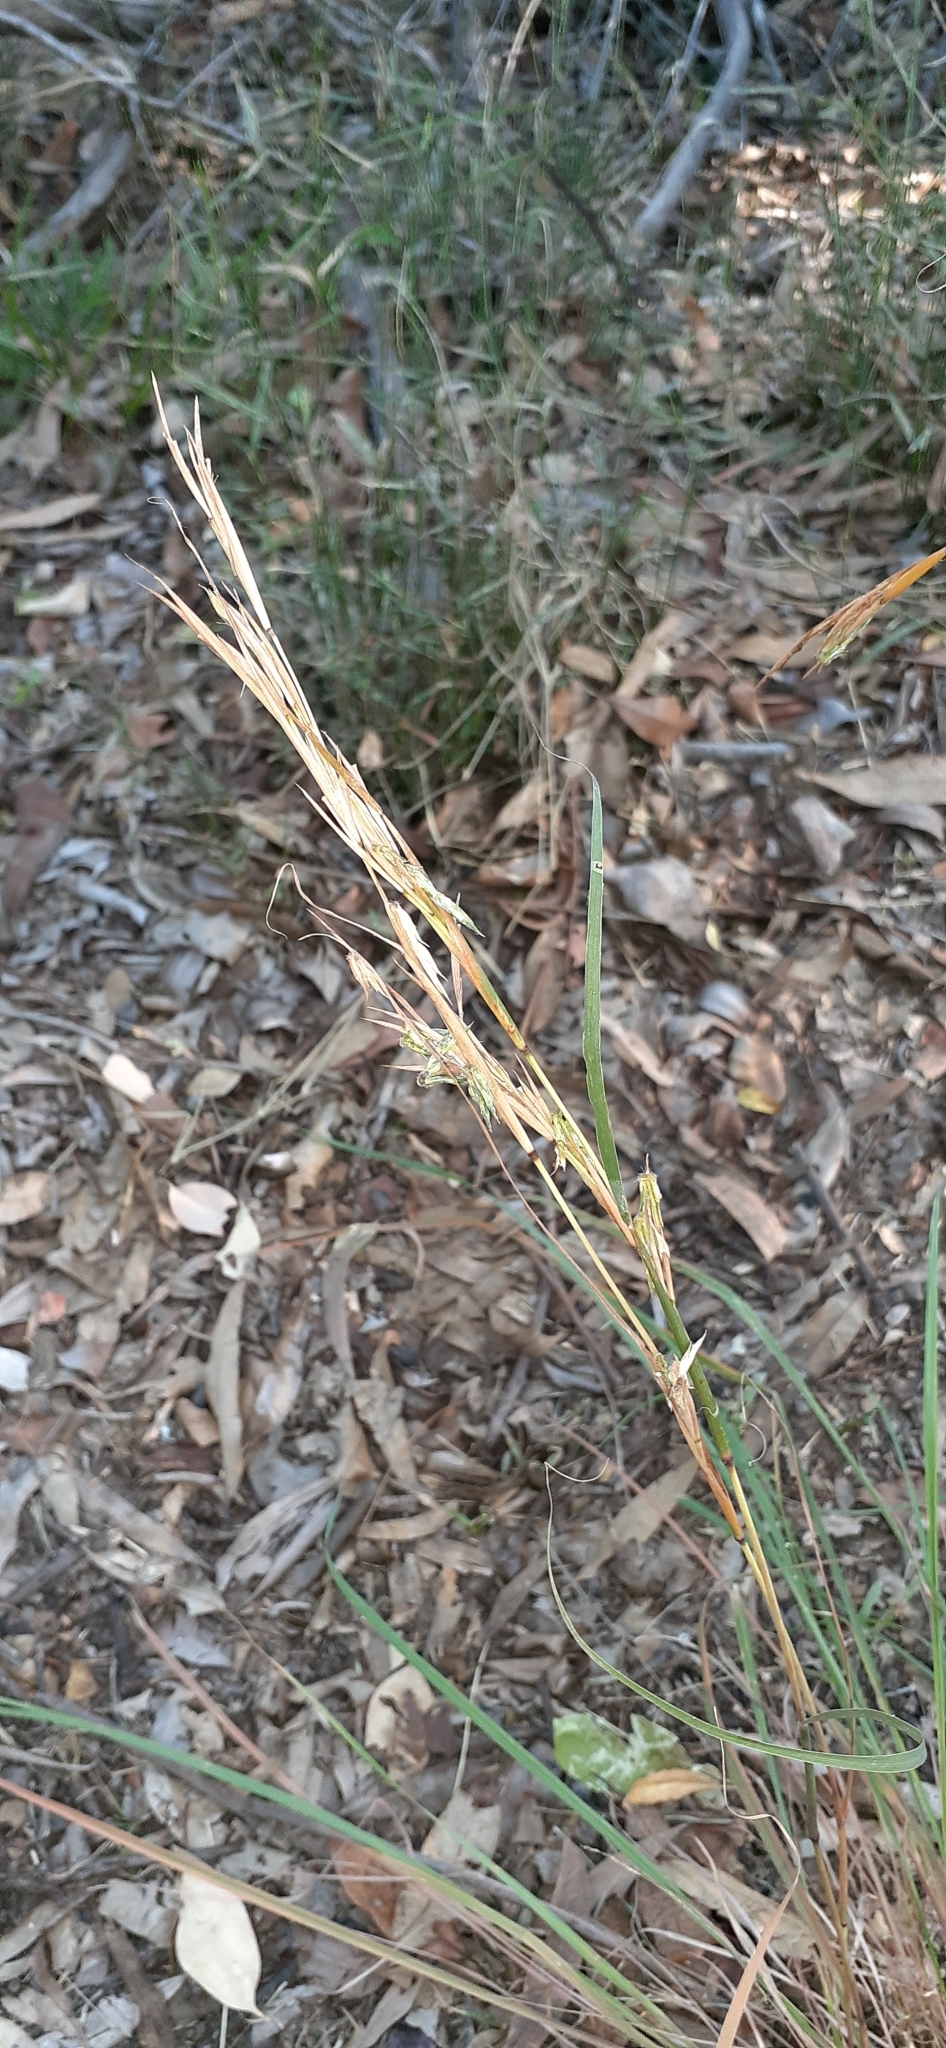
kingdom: Plantae
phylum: Tracheophyta
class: Liliopsida
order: Poales
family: Poaceae
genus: Cymbopogon
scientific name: Cymbopogon refractus
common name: Barbwire grass
